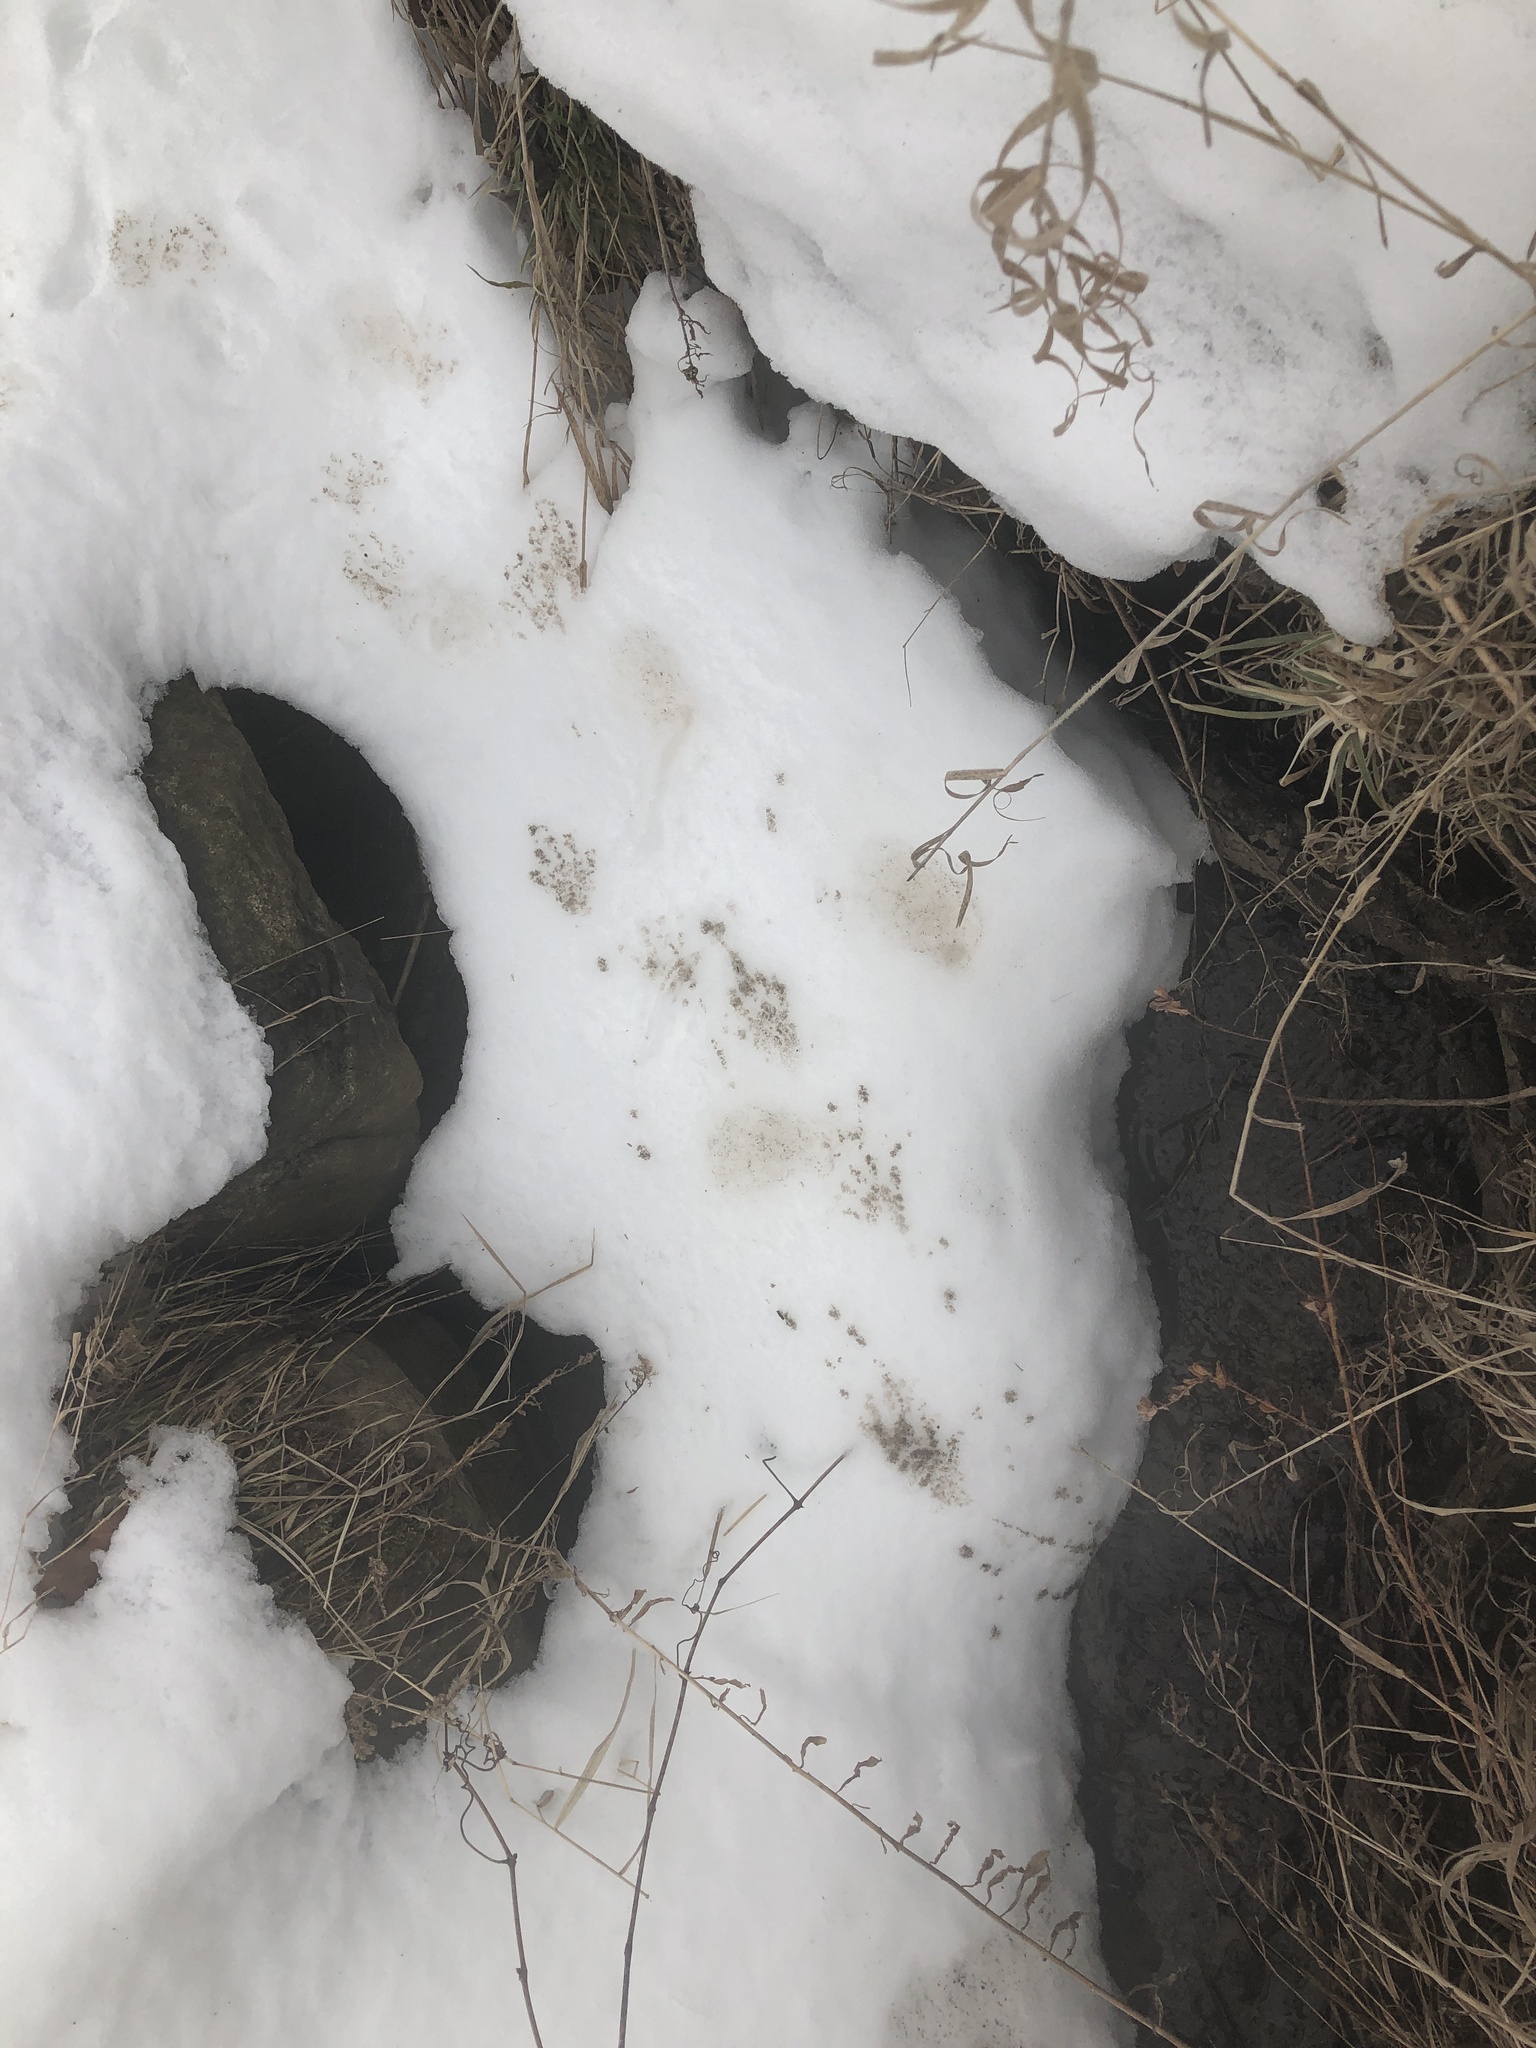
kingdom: Animalia
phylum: Chordata
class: Mammalia
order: Carnivora
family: Procyonidae
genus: Procyon
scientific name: Procyon lotor
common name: Raccoon
